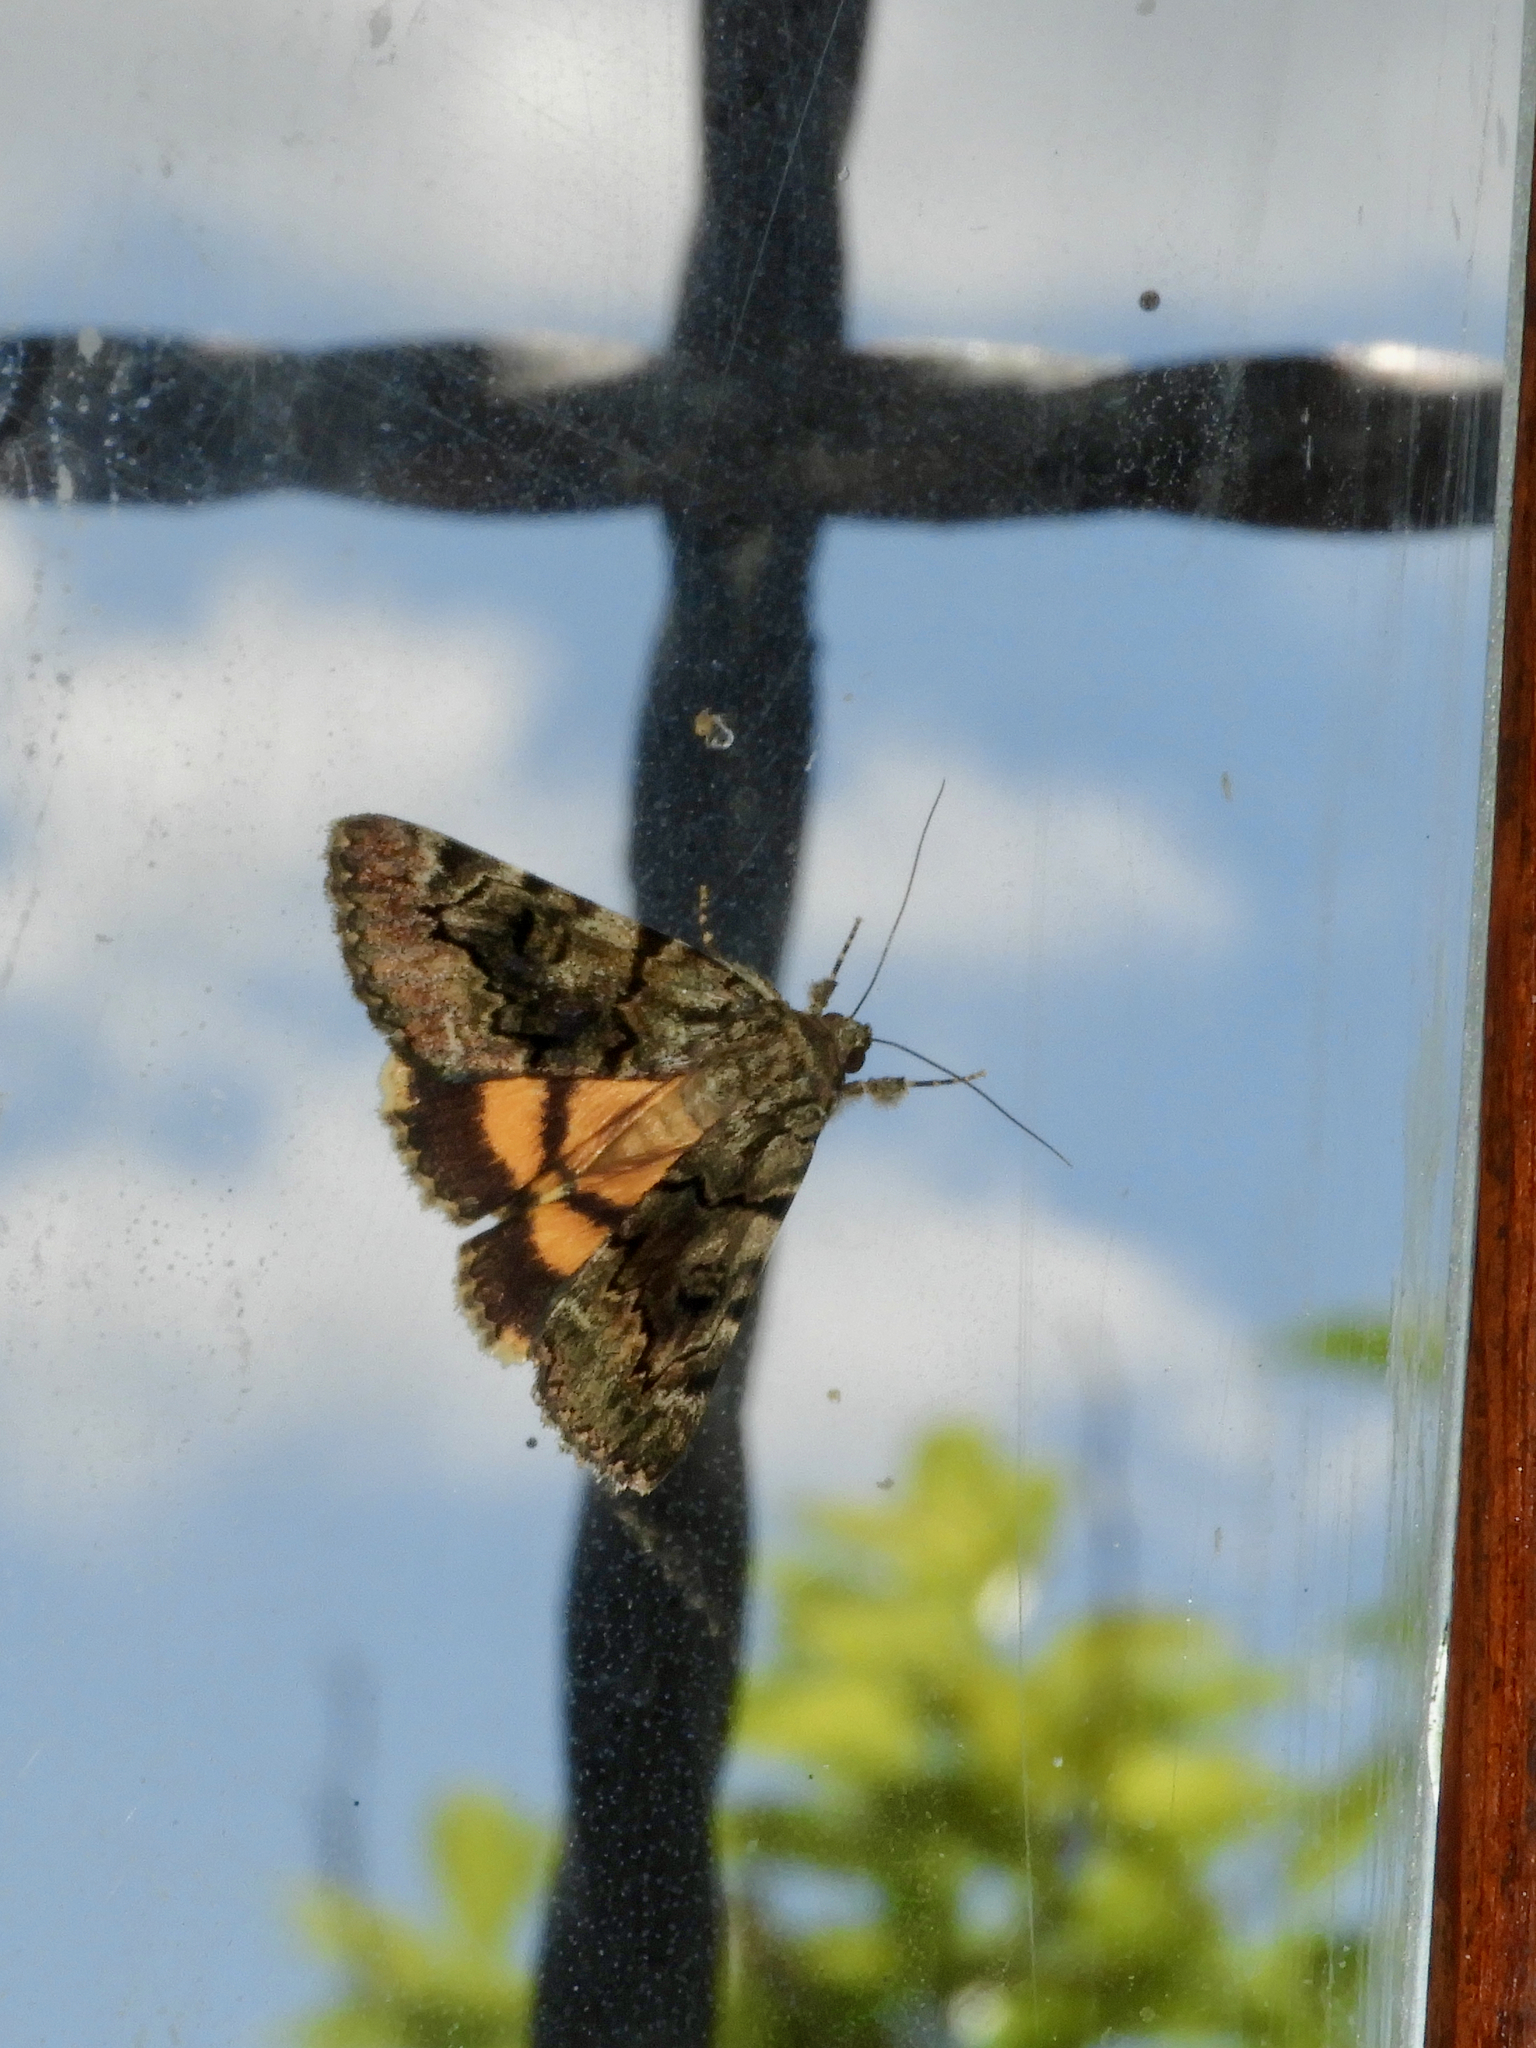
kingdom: Animalia
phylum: Arthropoda
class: Insecta
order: Lepidoptera
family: Erebidae
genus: Catocala
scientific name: Catocala nymphagoga
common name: Oak yellow underwing
